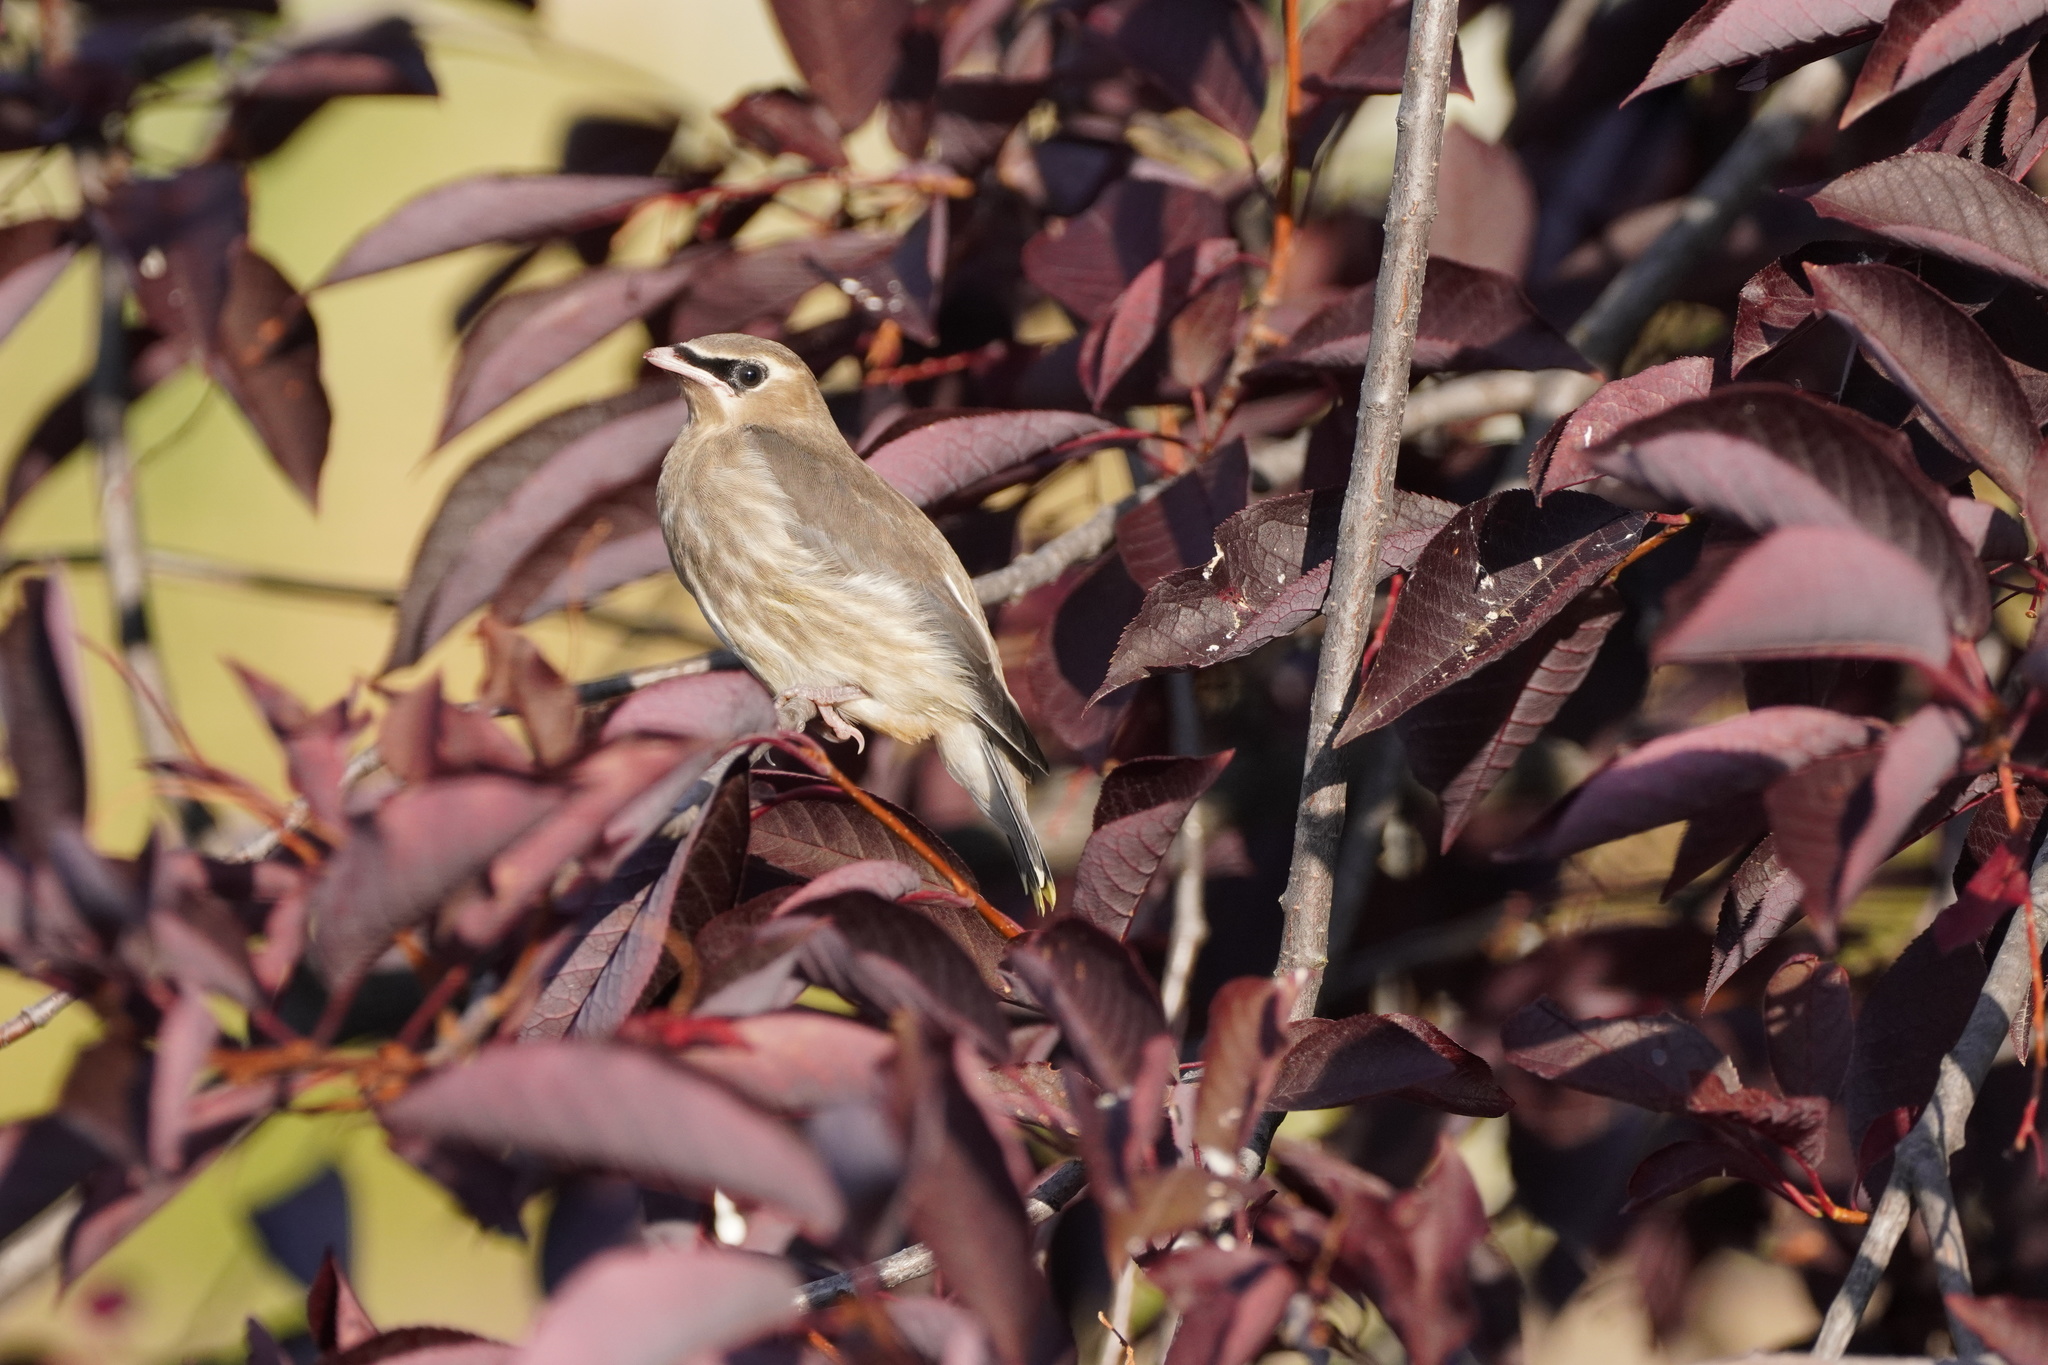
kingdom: Animalia
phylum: Chordata
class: Aves
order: Passeriformes
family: Bombycillidae
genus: Bombycilla
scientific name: Bombycilla cedrorum
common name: Cedar waxwing
